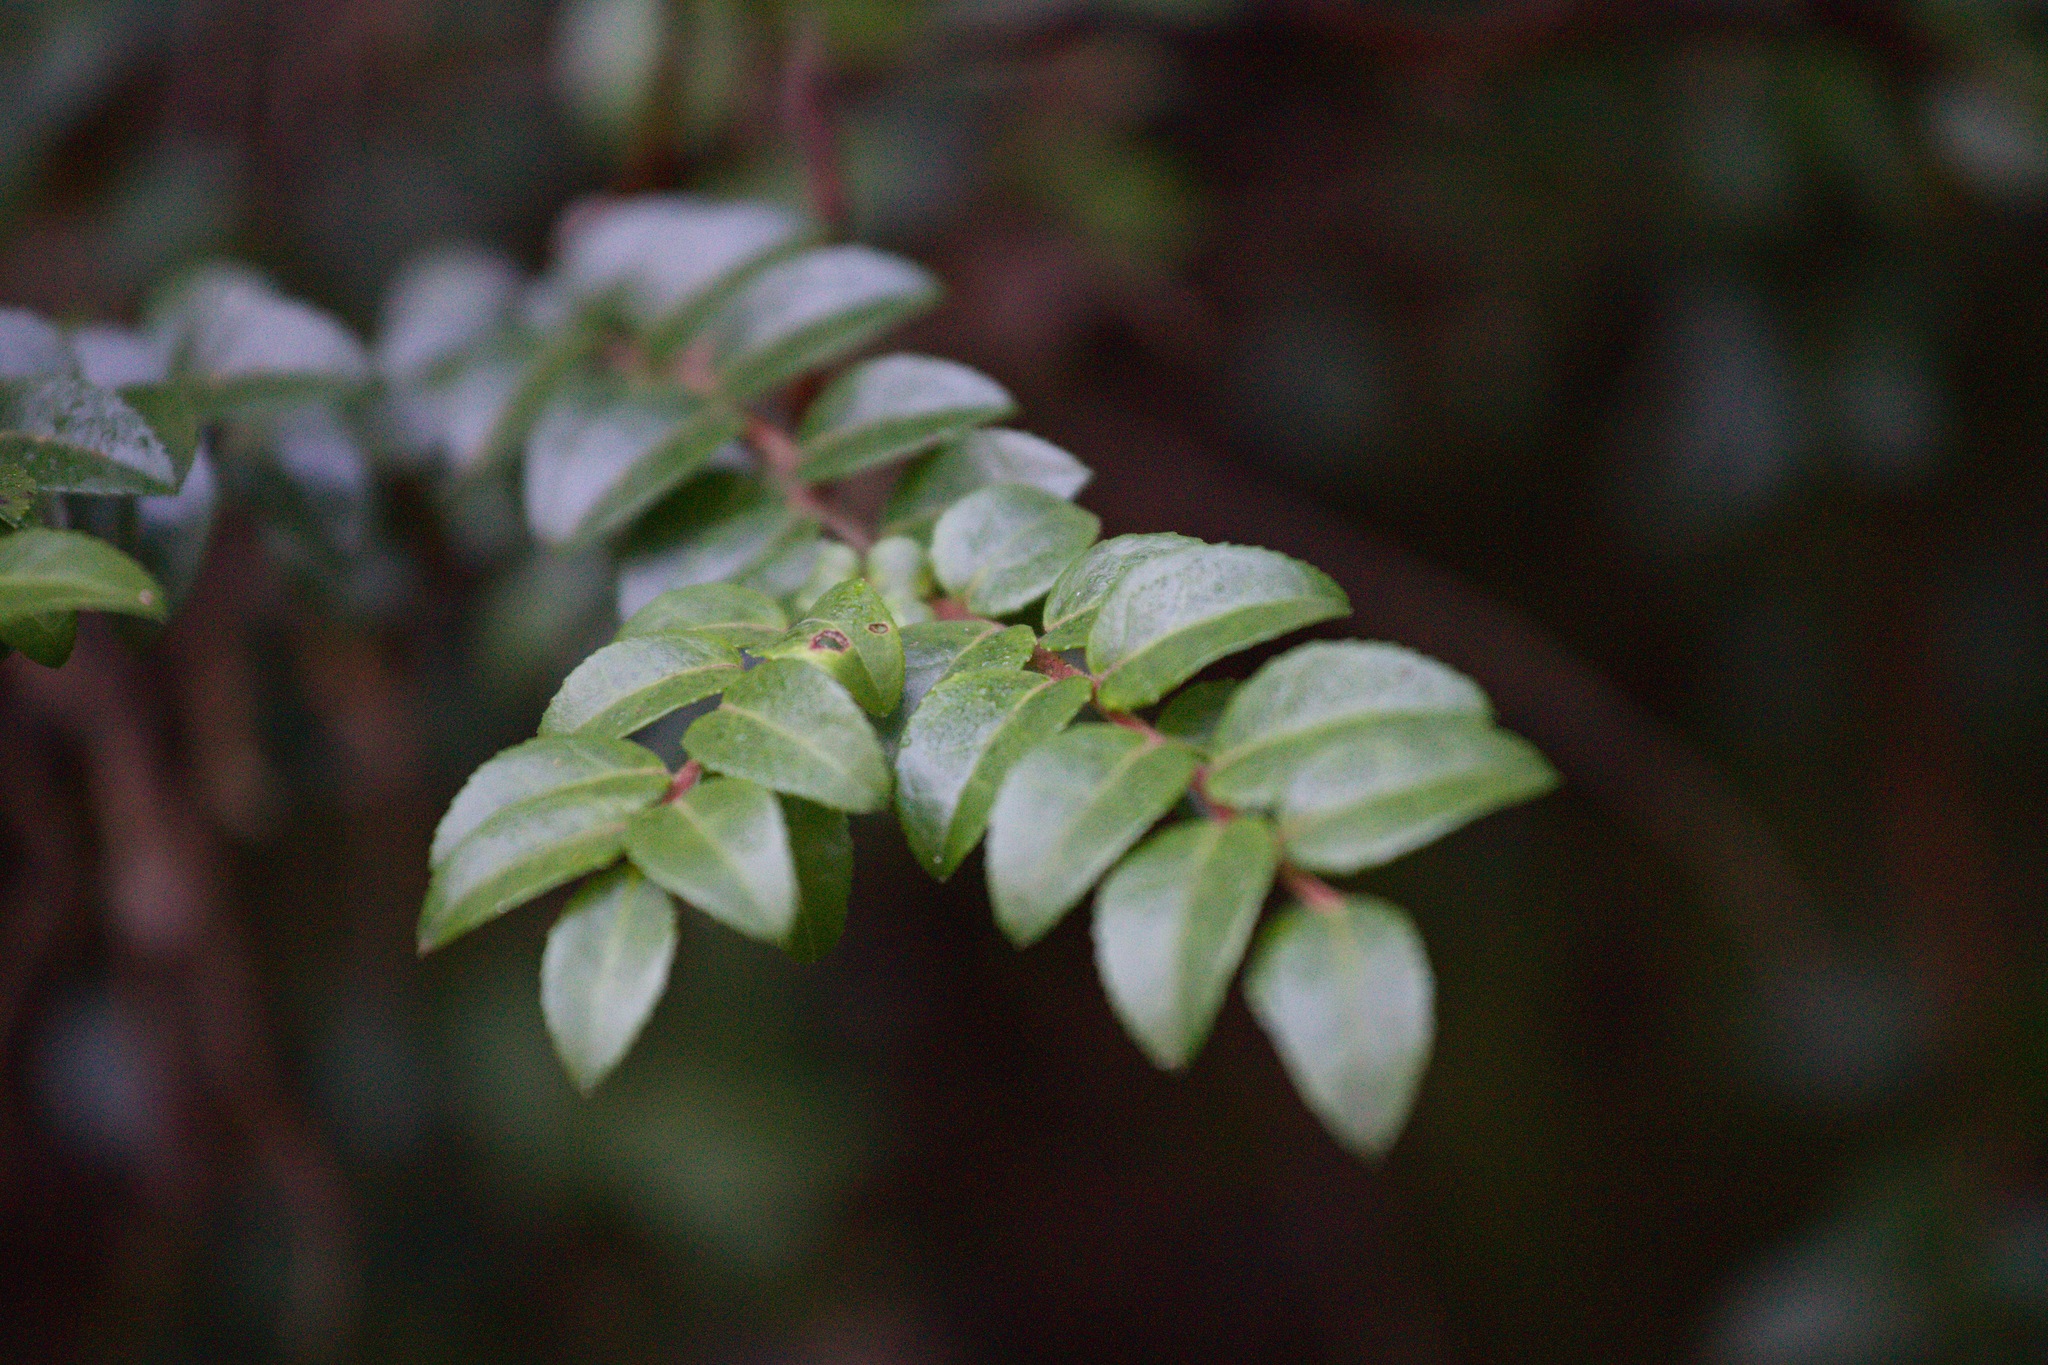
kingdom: Plantae
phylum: Tracheophyta
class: Magnoliopsida
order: Ericales
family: Ericaceae
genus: Vaccinium
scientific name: Vaccinium ovatum
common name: California-huckleberry
